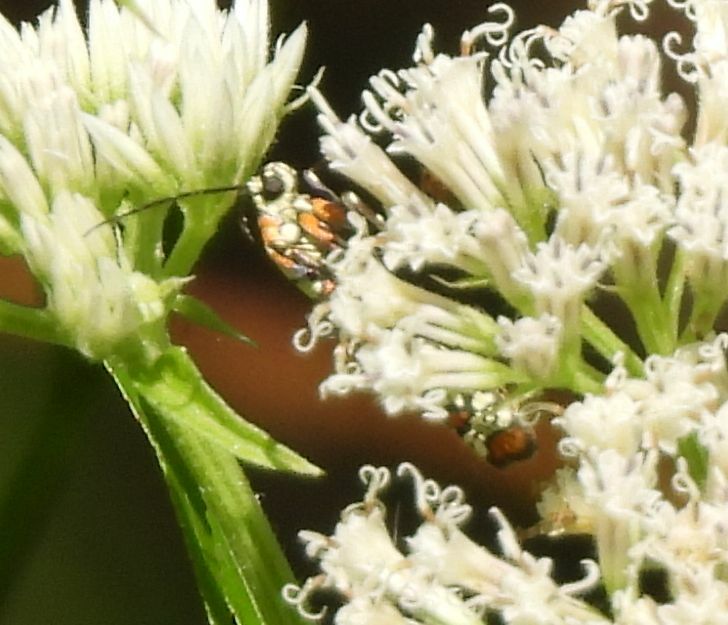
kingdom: Animalia
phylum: Arthropoda
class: Insecta
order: Lepidoptera
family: Attevidae
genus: Atteva
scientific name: Atteva punctella
